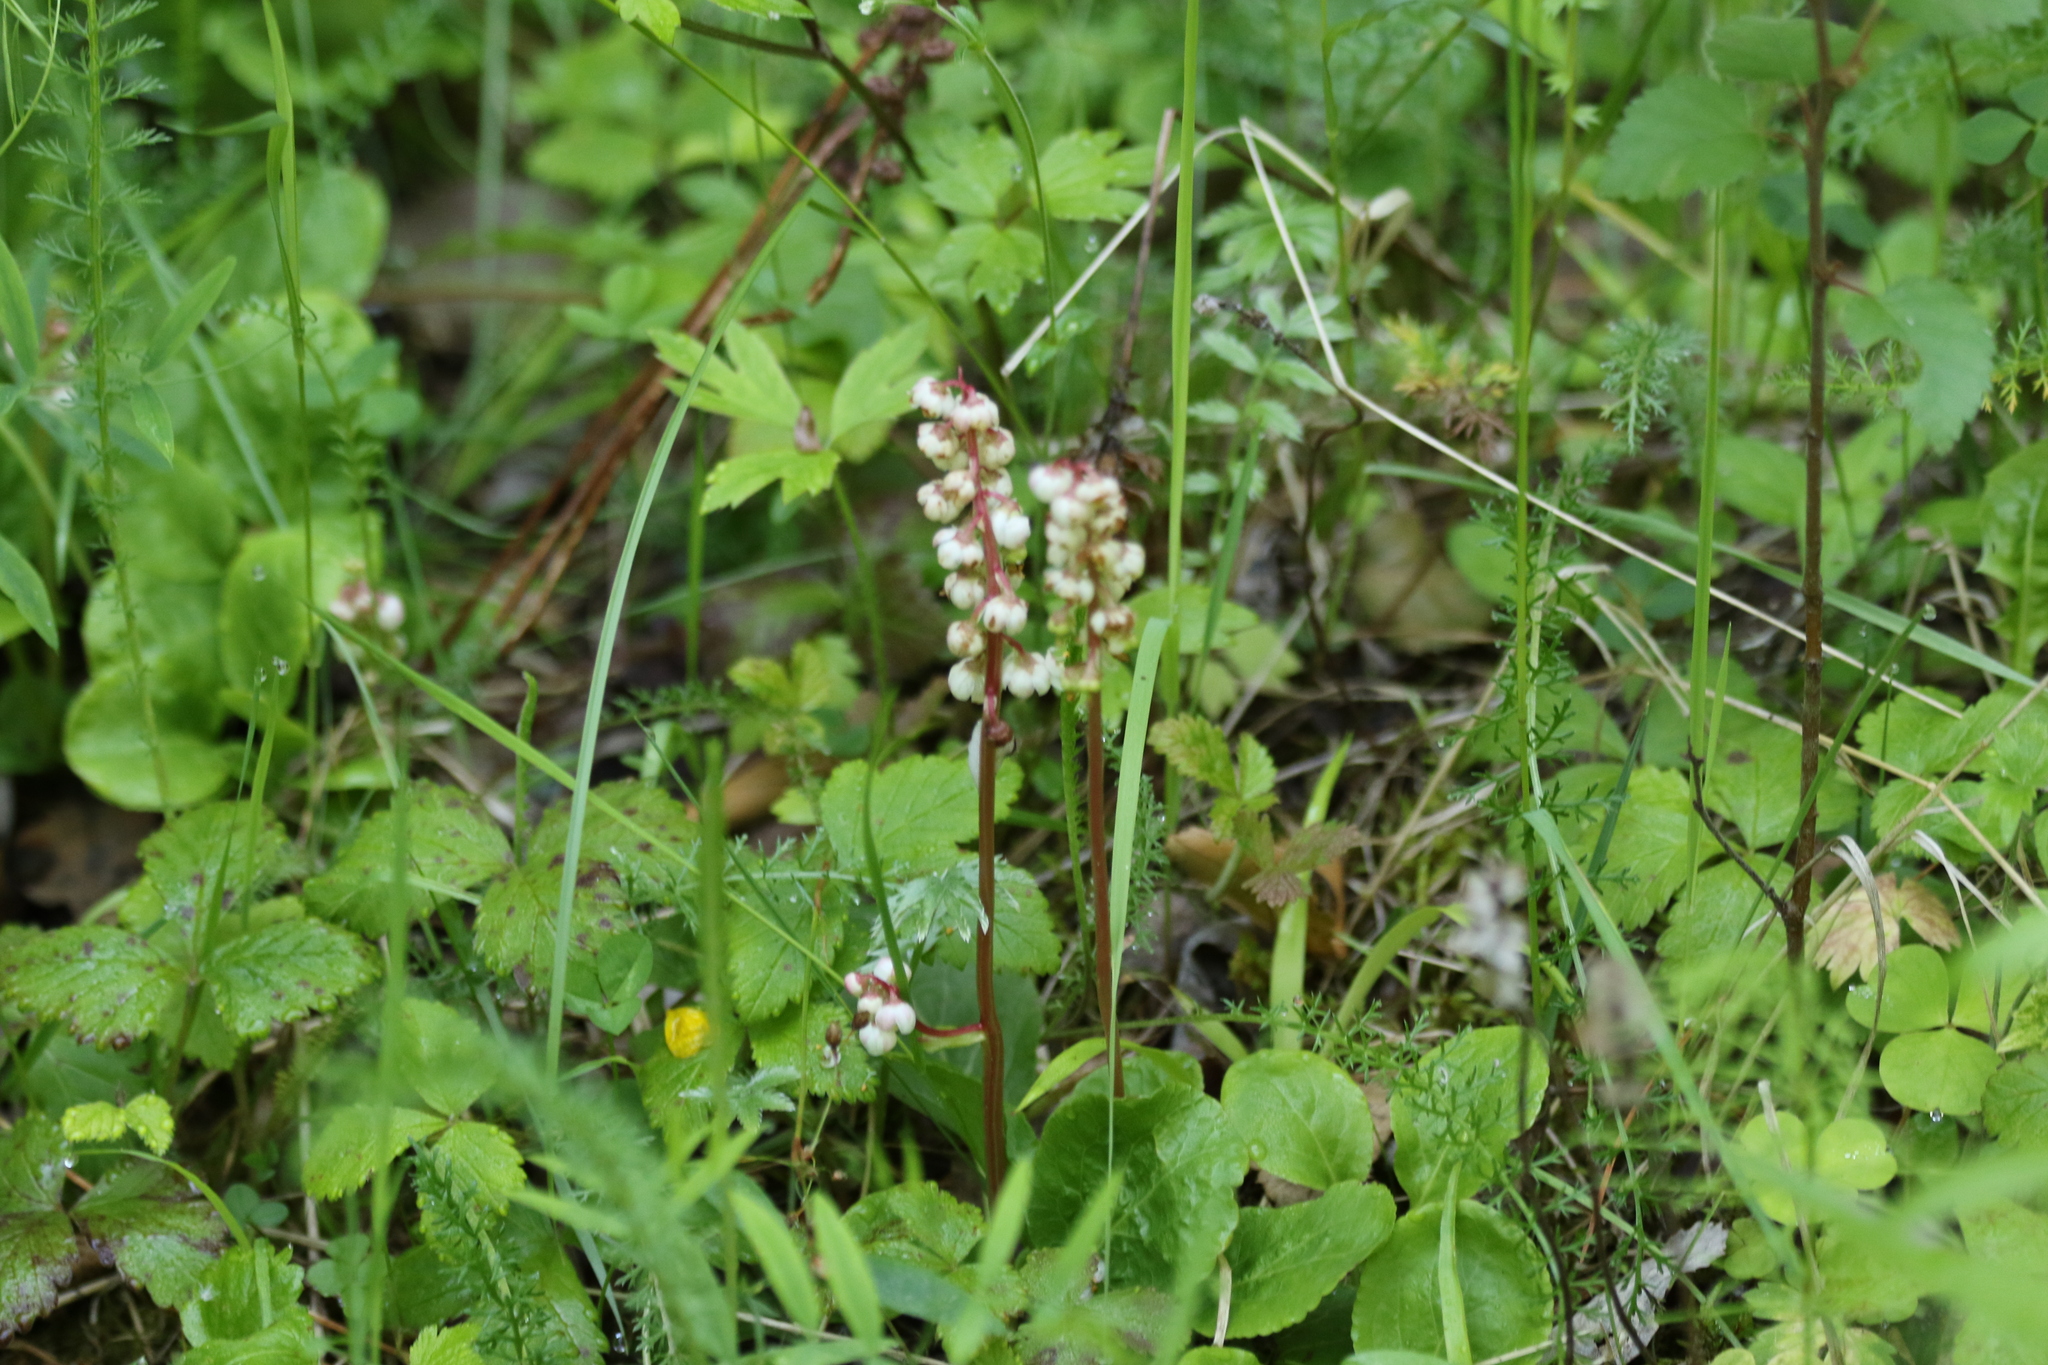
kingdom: Plantae
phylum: Tracheophyta
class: Magnoliopsida
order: Ericales
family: Ericaceae
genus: Pyrola
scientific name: Pyrola minor
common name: Common wintergreen
